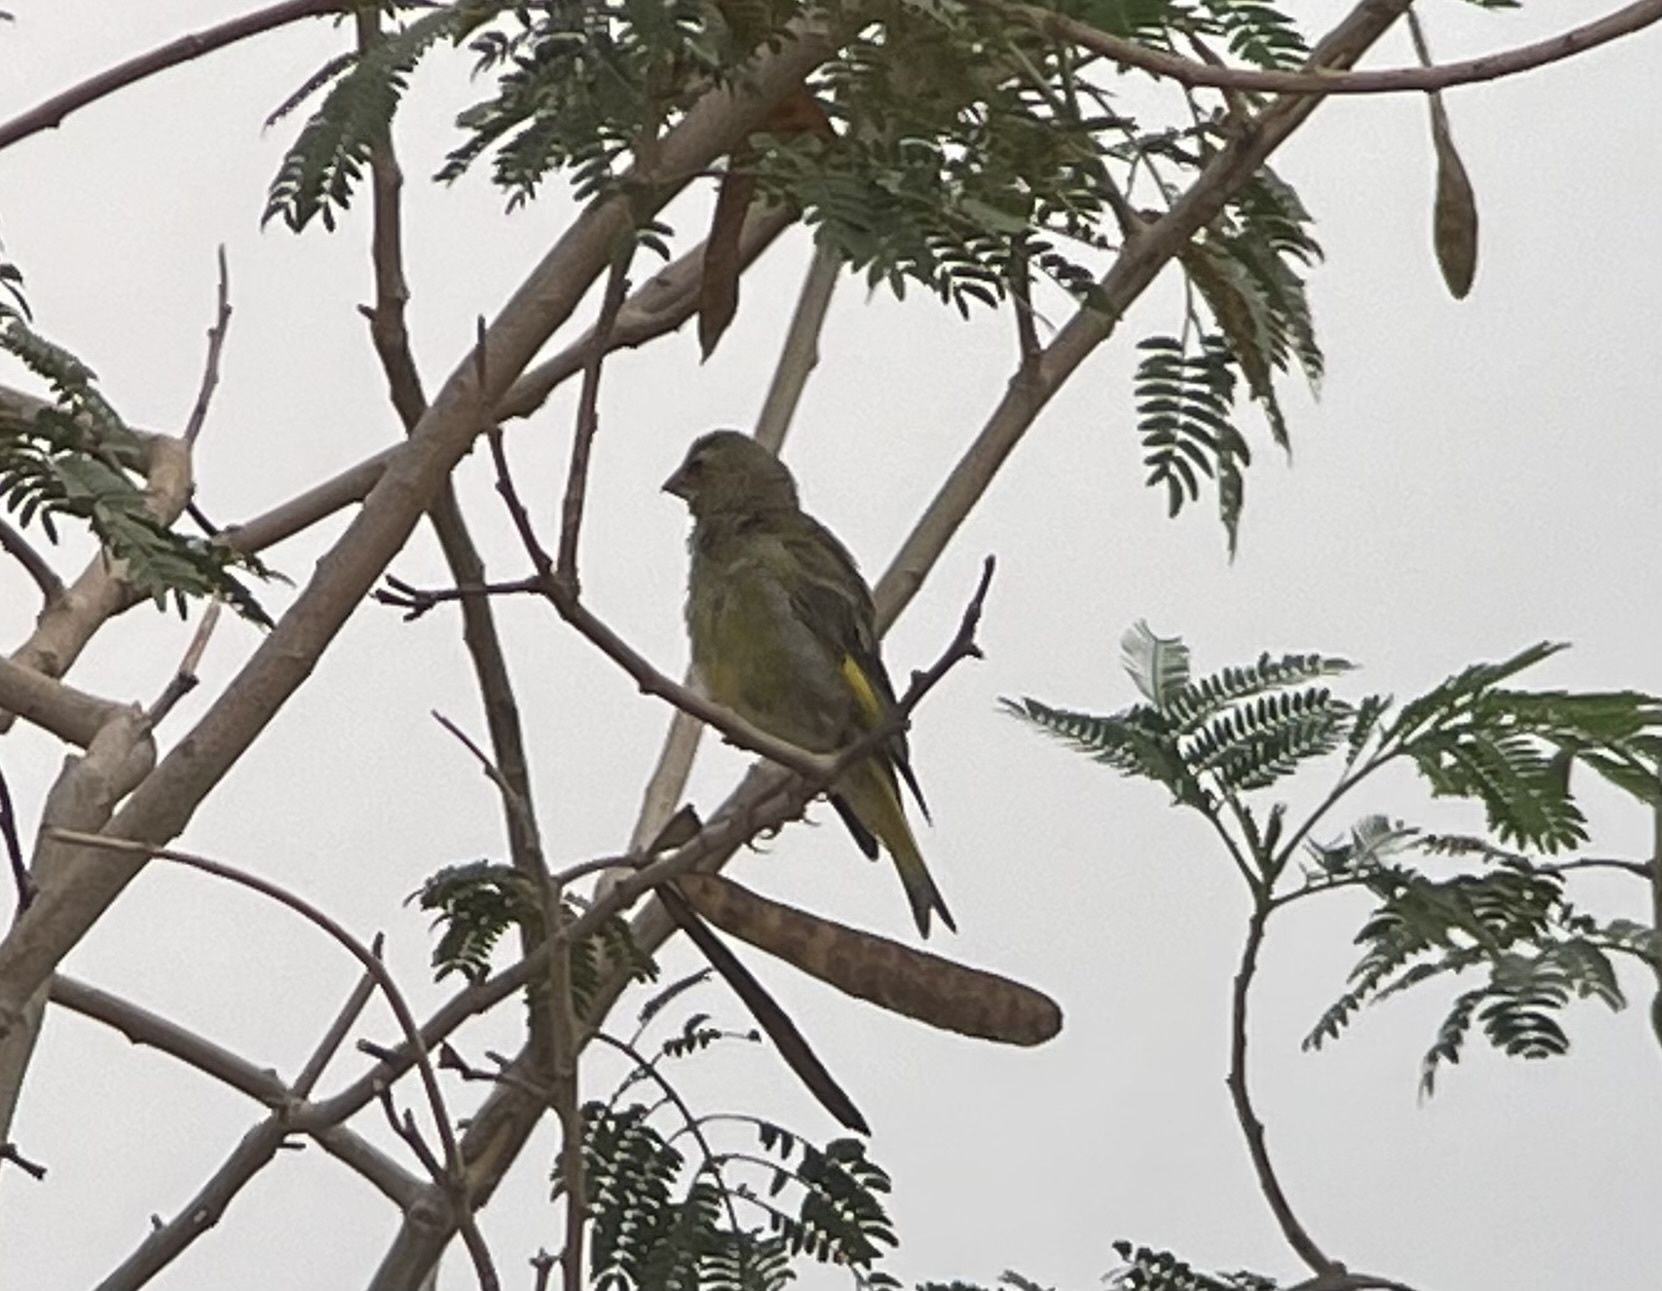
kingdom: Plantae
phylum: Tracheophyta
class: Liliopsida
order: Poales
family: Poaceae
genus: Chloris
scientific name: Chloris chloris
